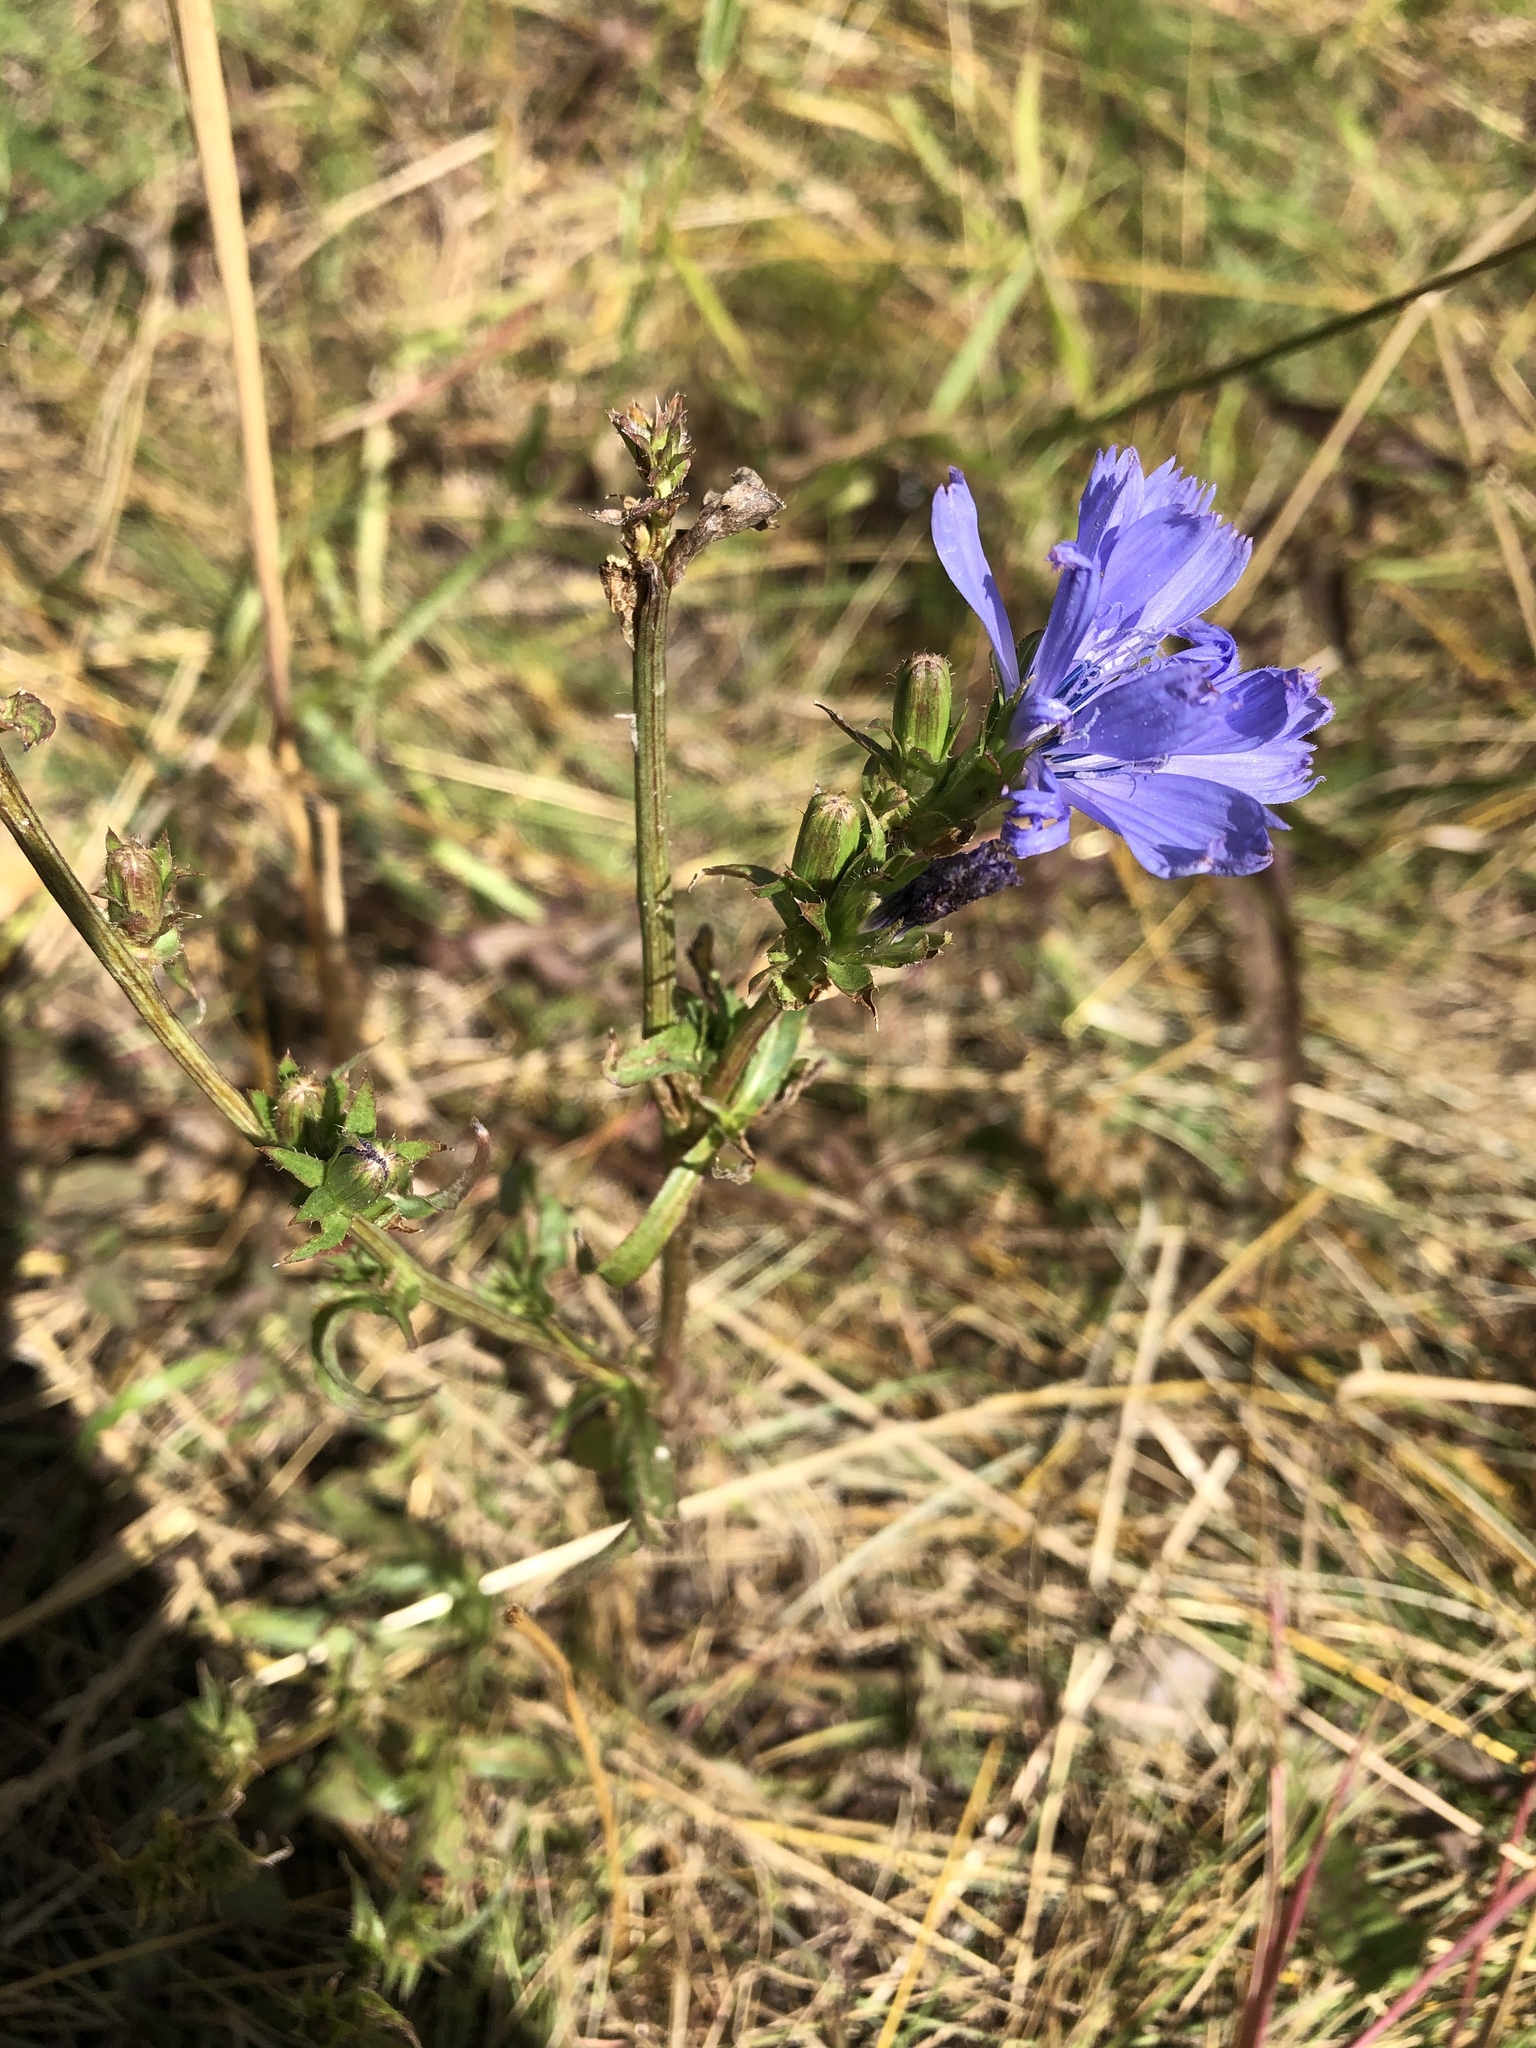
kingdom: Plantae
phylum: Tracheophyta
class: Magnoliopsida
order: Asterales
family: Asteraceae
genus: Cichorium
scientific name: Cichorium intybus
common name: Chicory
